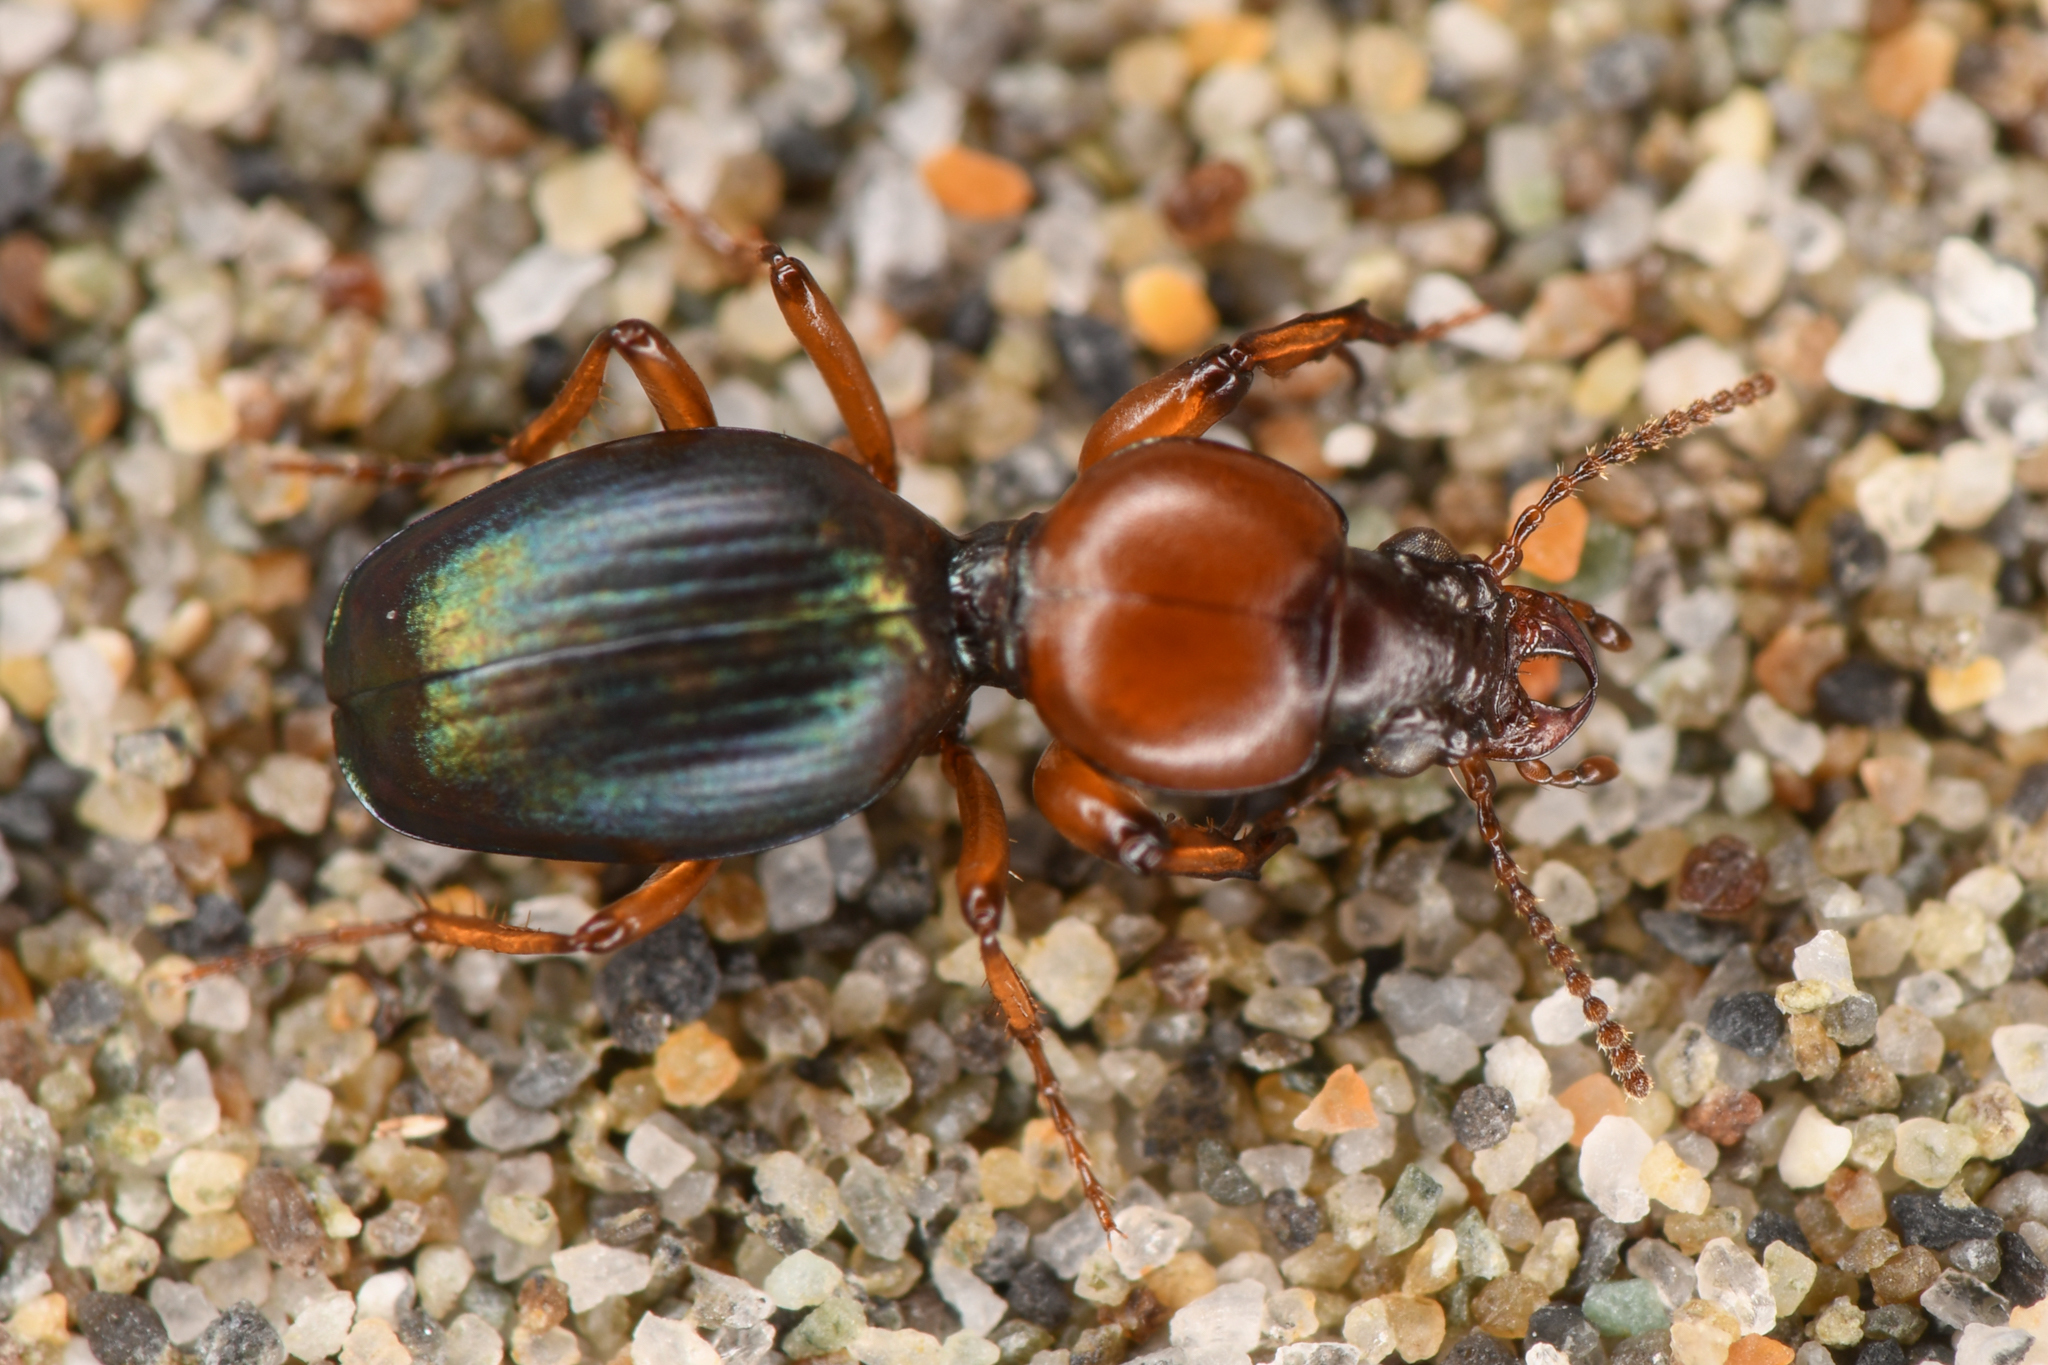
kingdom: Animalia
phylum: Arthropoda
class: Insecta
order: Coleoptera
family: Carabidae
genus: Akephorus
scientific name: Akephorus obesus
